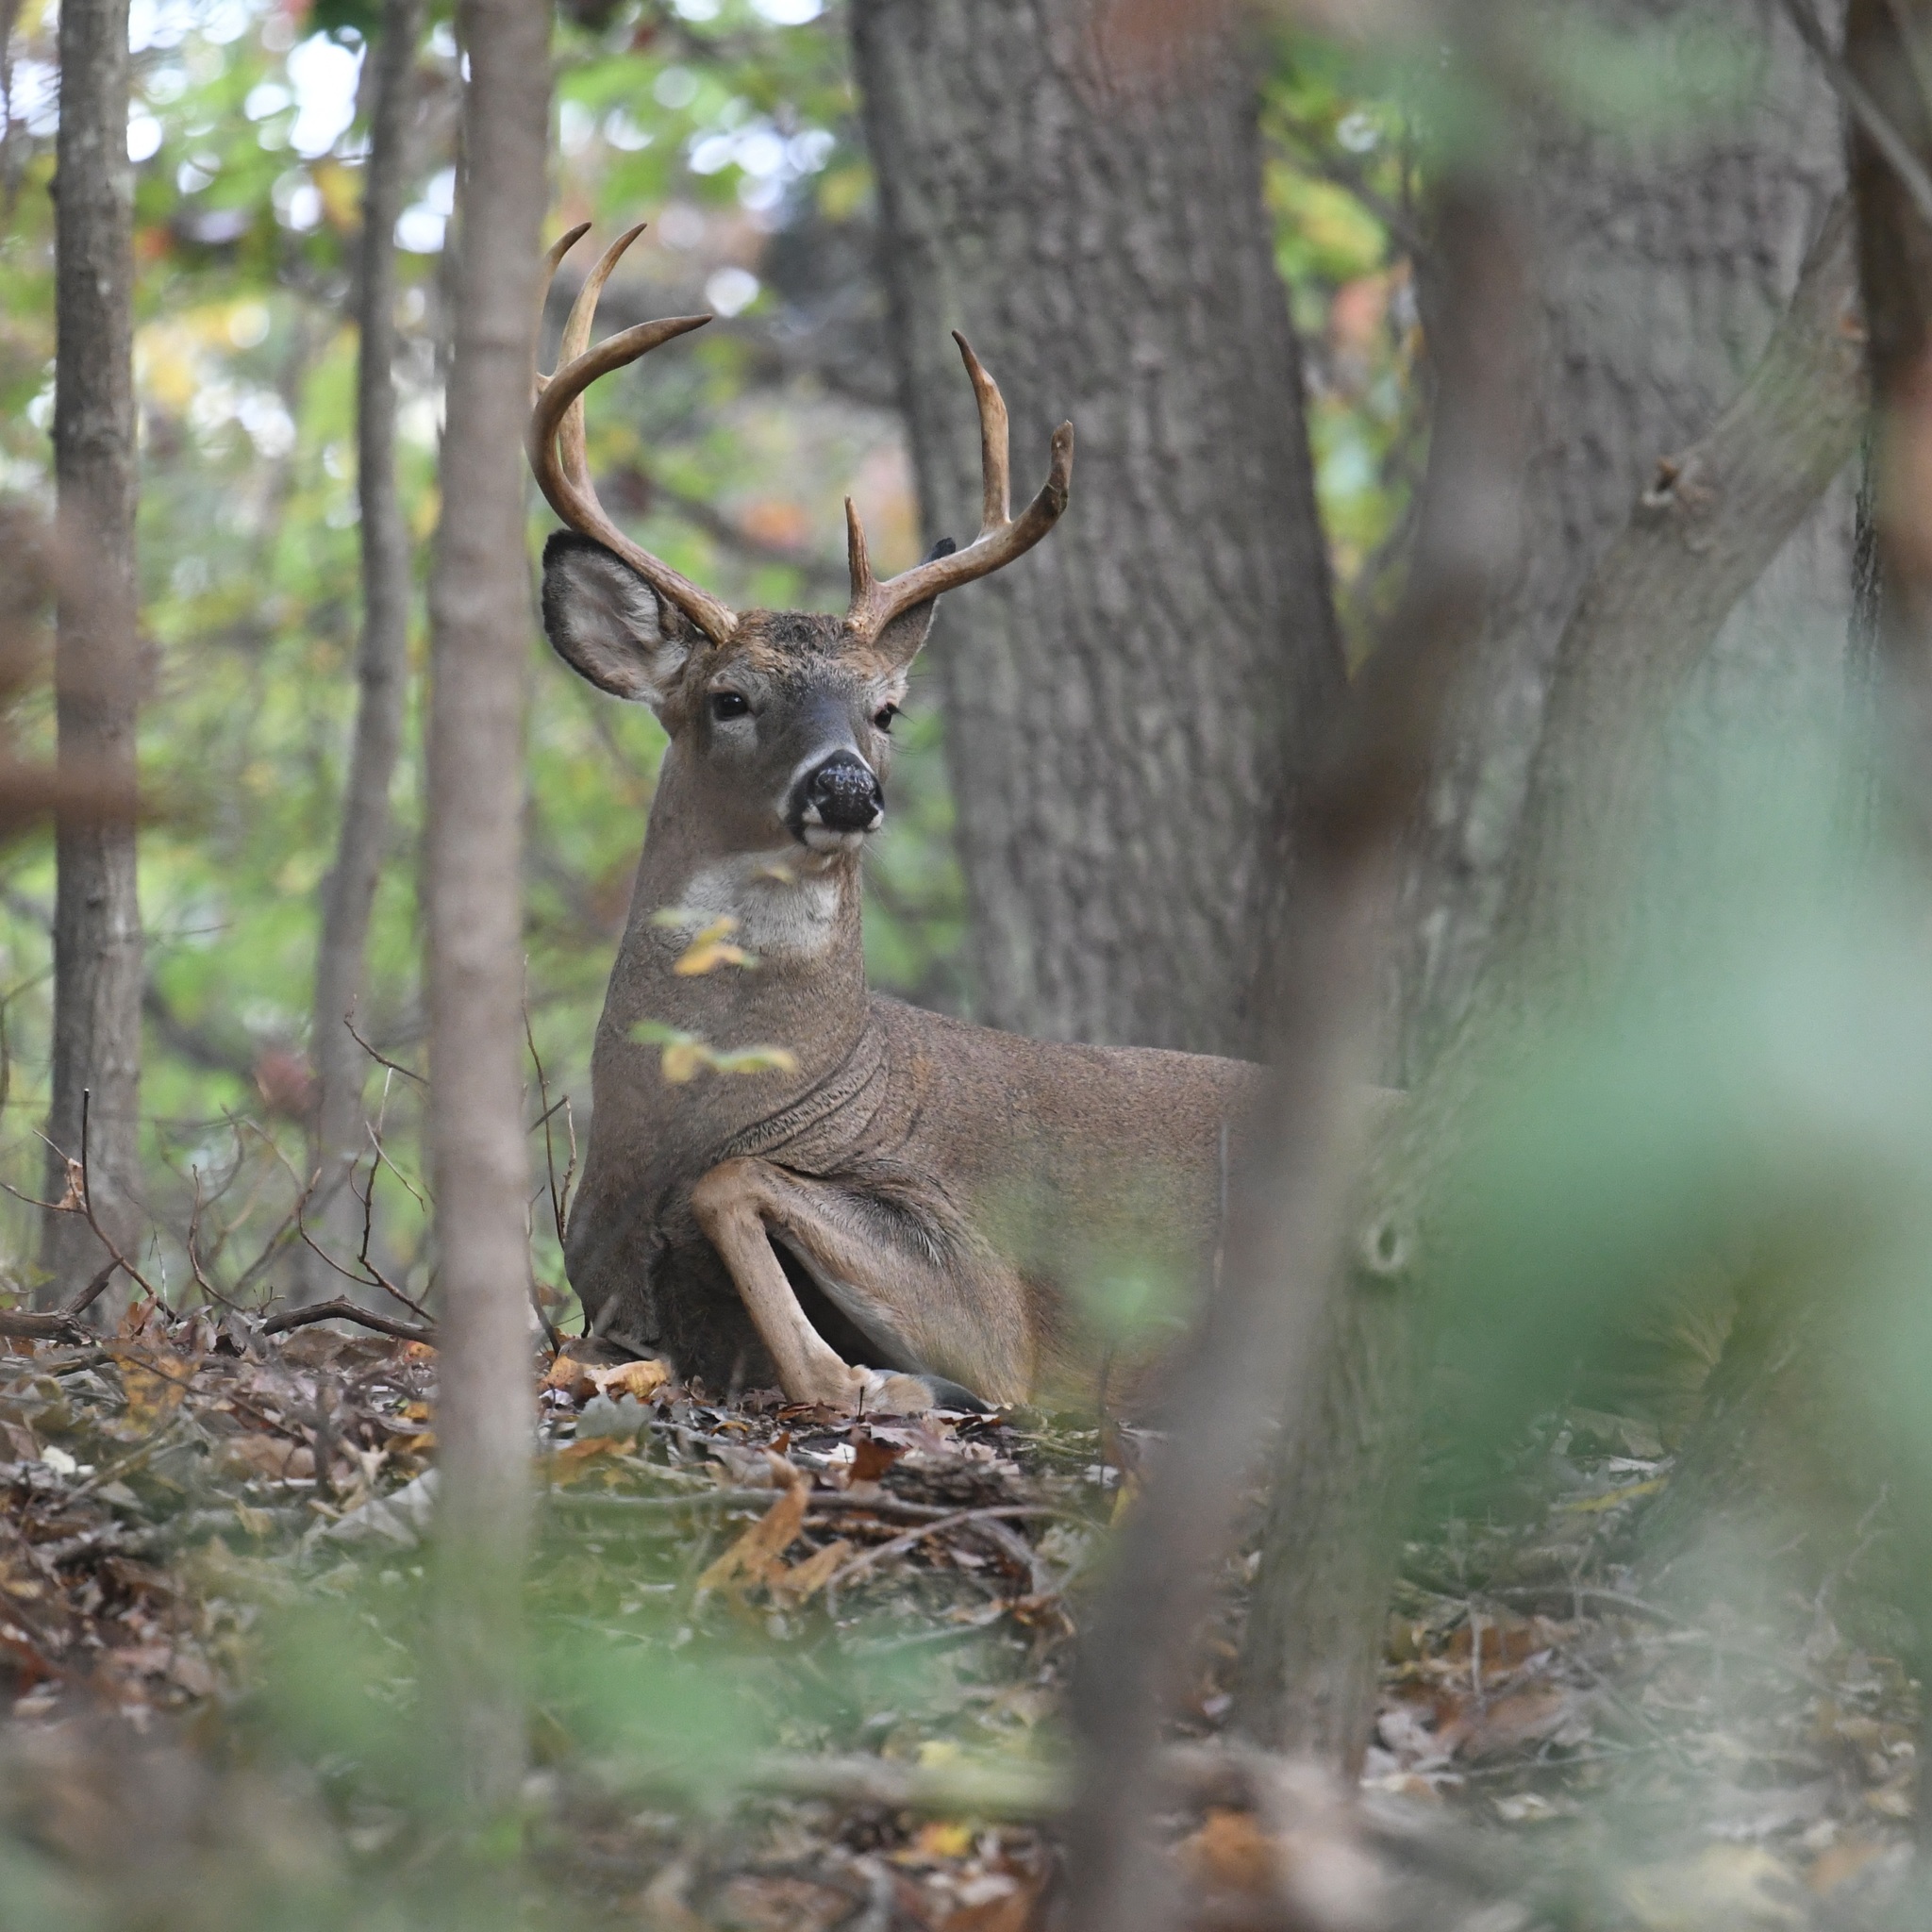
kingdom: Animalia
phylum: Chordata
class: Mammalia
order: Artiodactyla
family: Cervidae
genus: Odocoileus
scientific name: Odocoileus virginianus
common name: White-tailed deer
